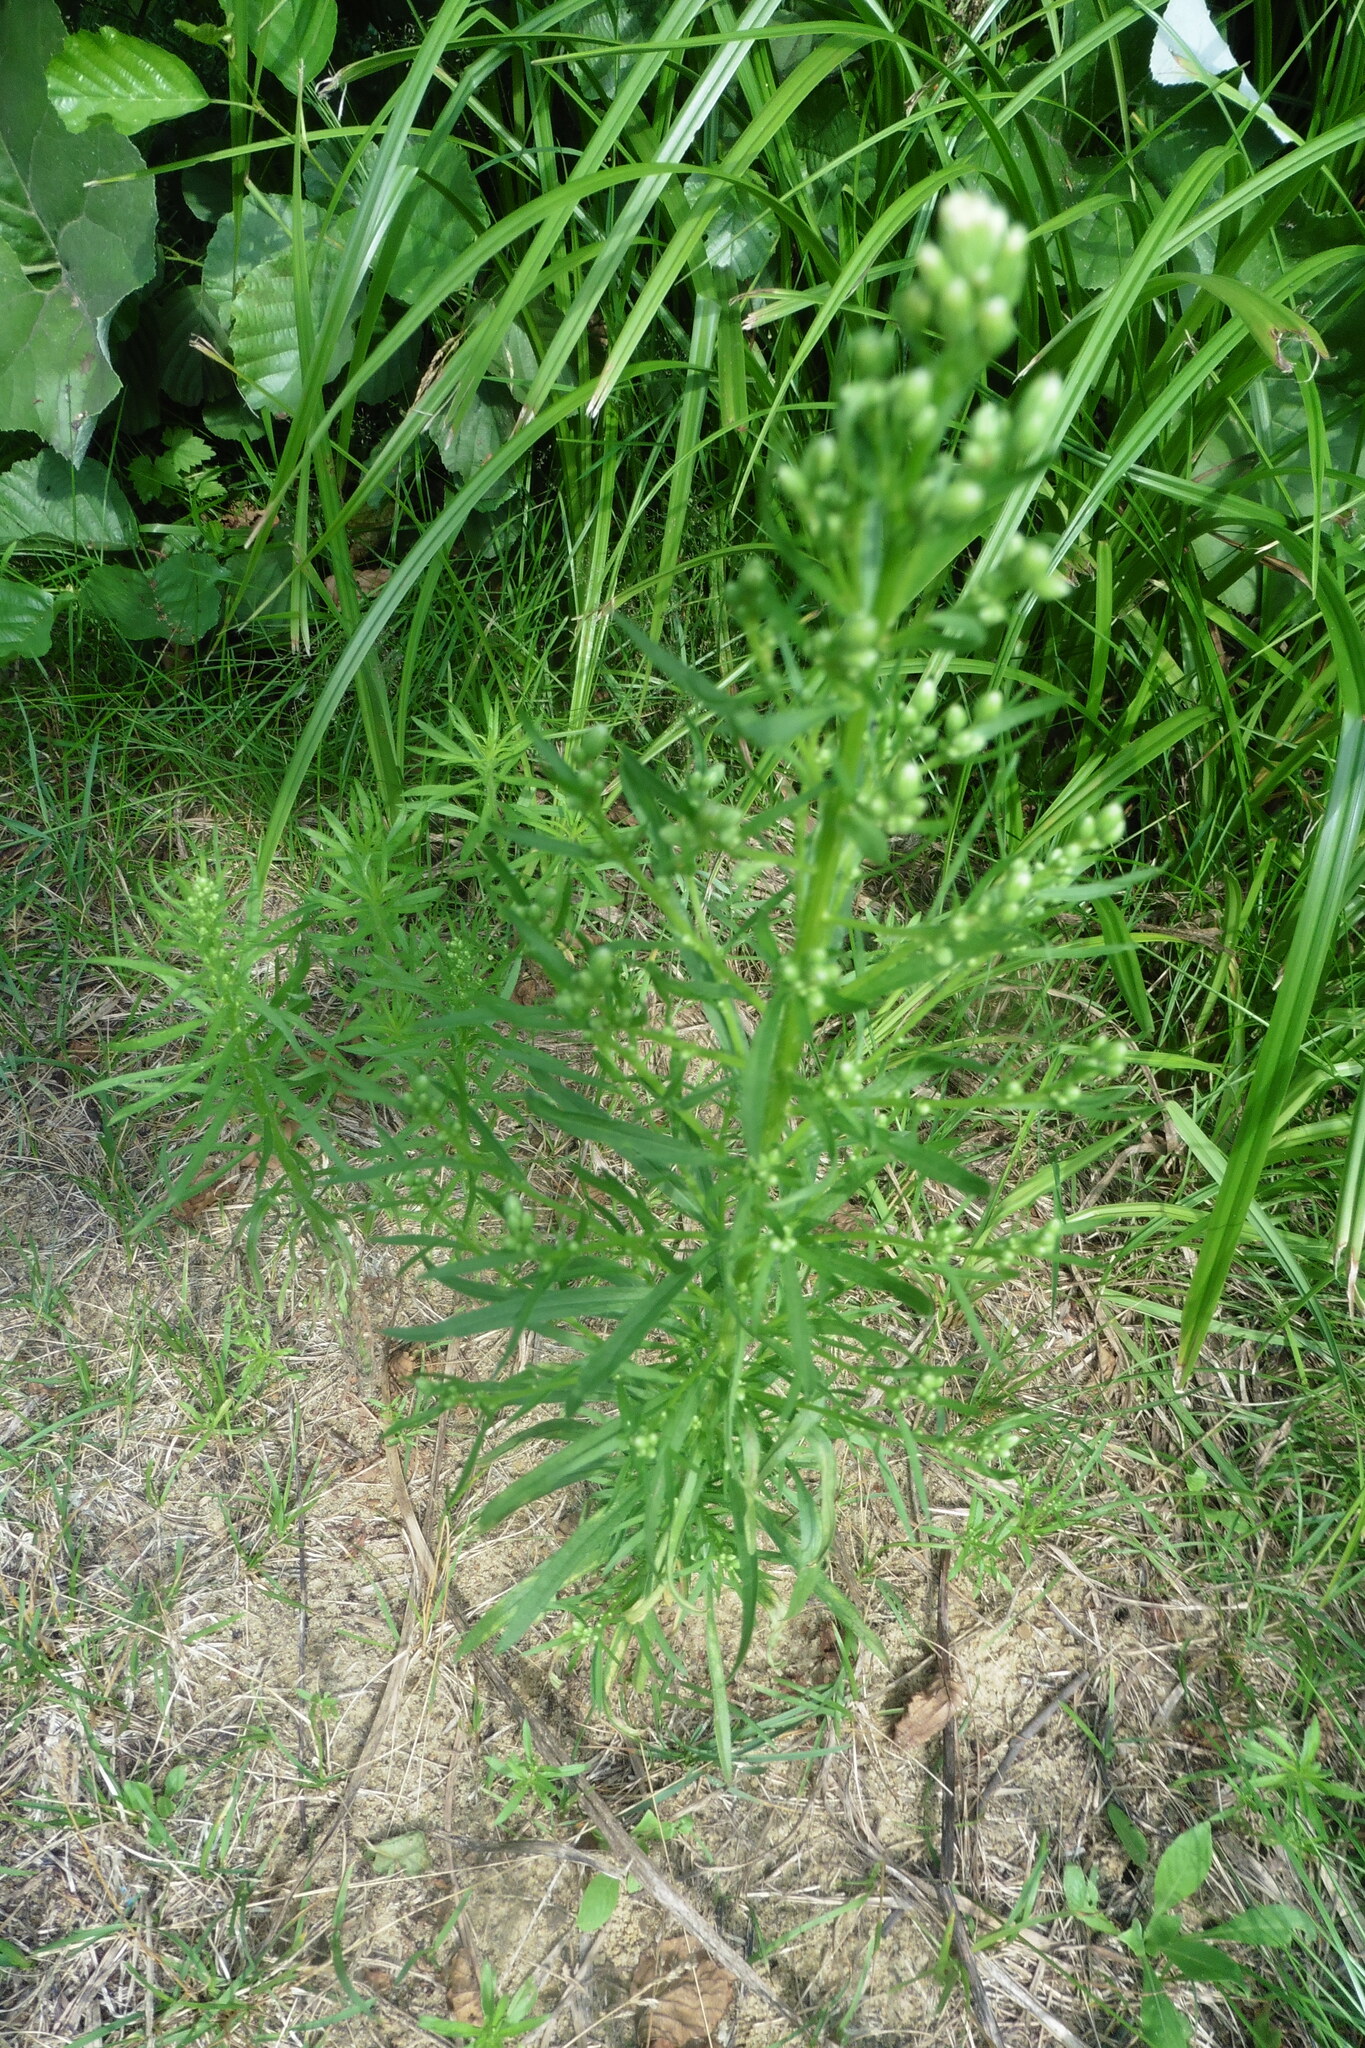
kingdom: Plantae
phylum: Tracheophyta
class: Magnoliopsida
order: Asterales
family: Asteraceae
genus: Erigeron
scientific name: Erigeron canadensis
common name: Canadian fleabane
